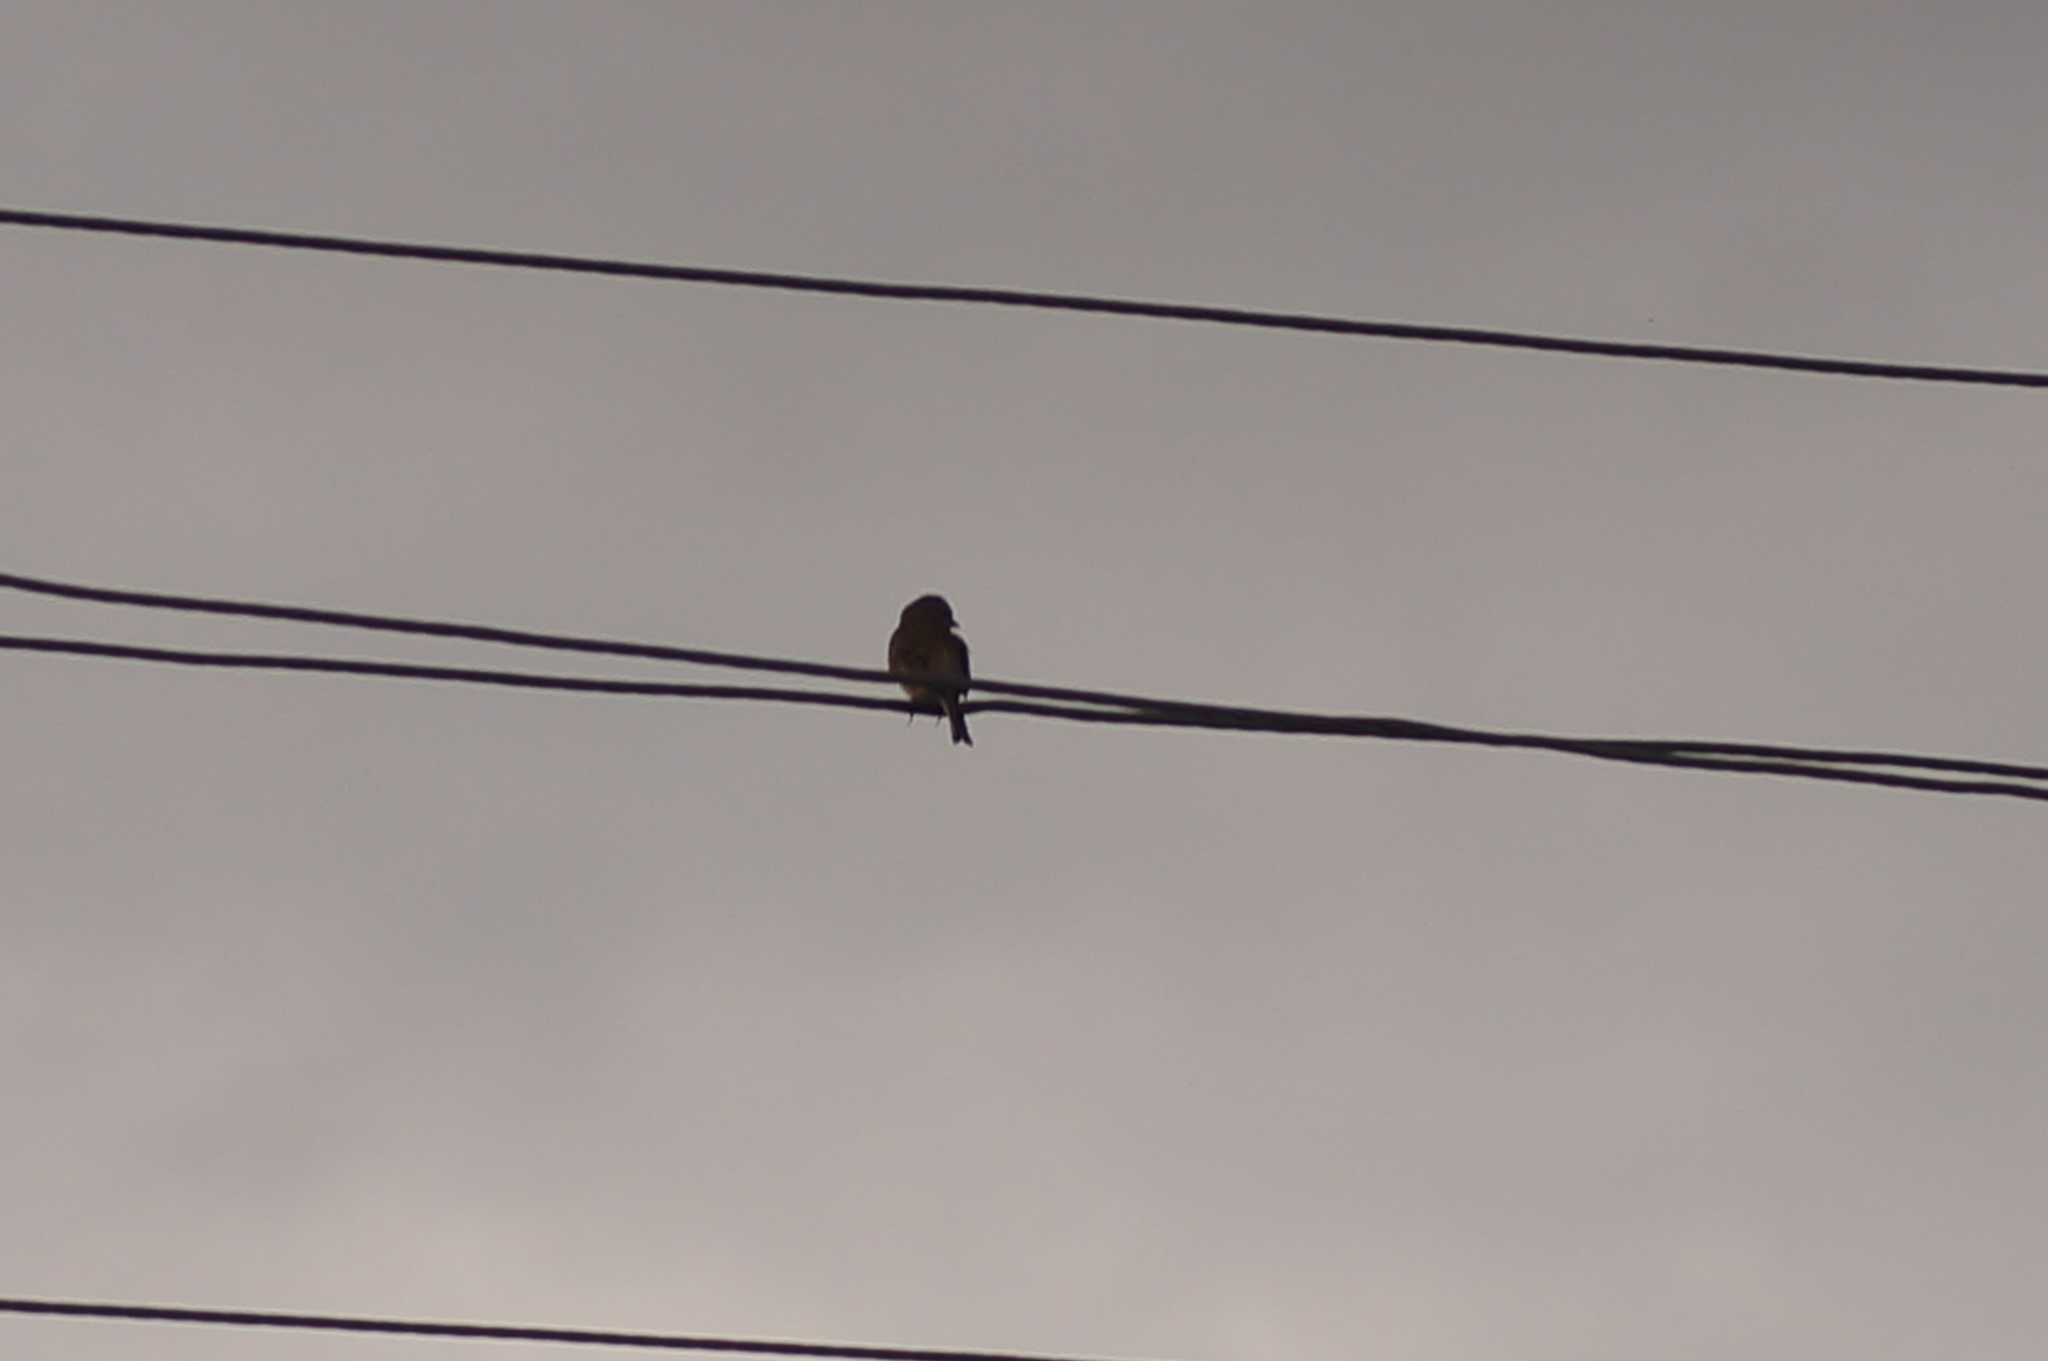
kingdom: Animalia
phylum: Chordata
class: Aves
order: Passeriformes
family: Fringillidae
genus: Linaria
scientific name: Linaria cannabina
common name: Common linnet
